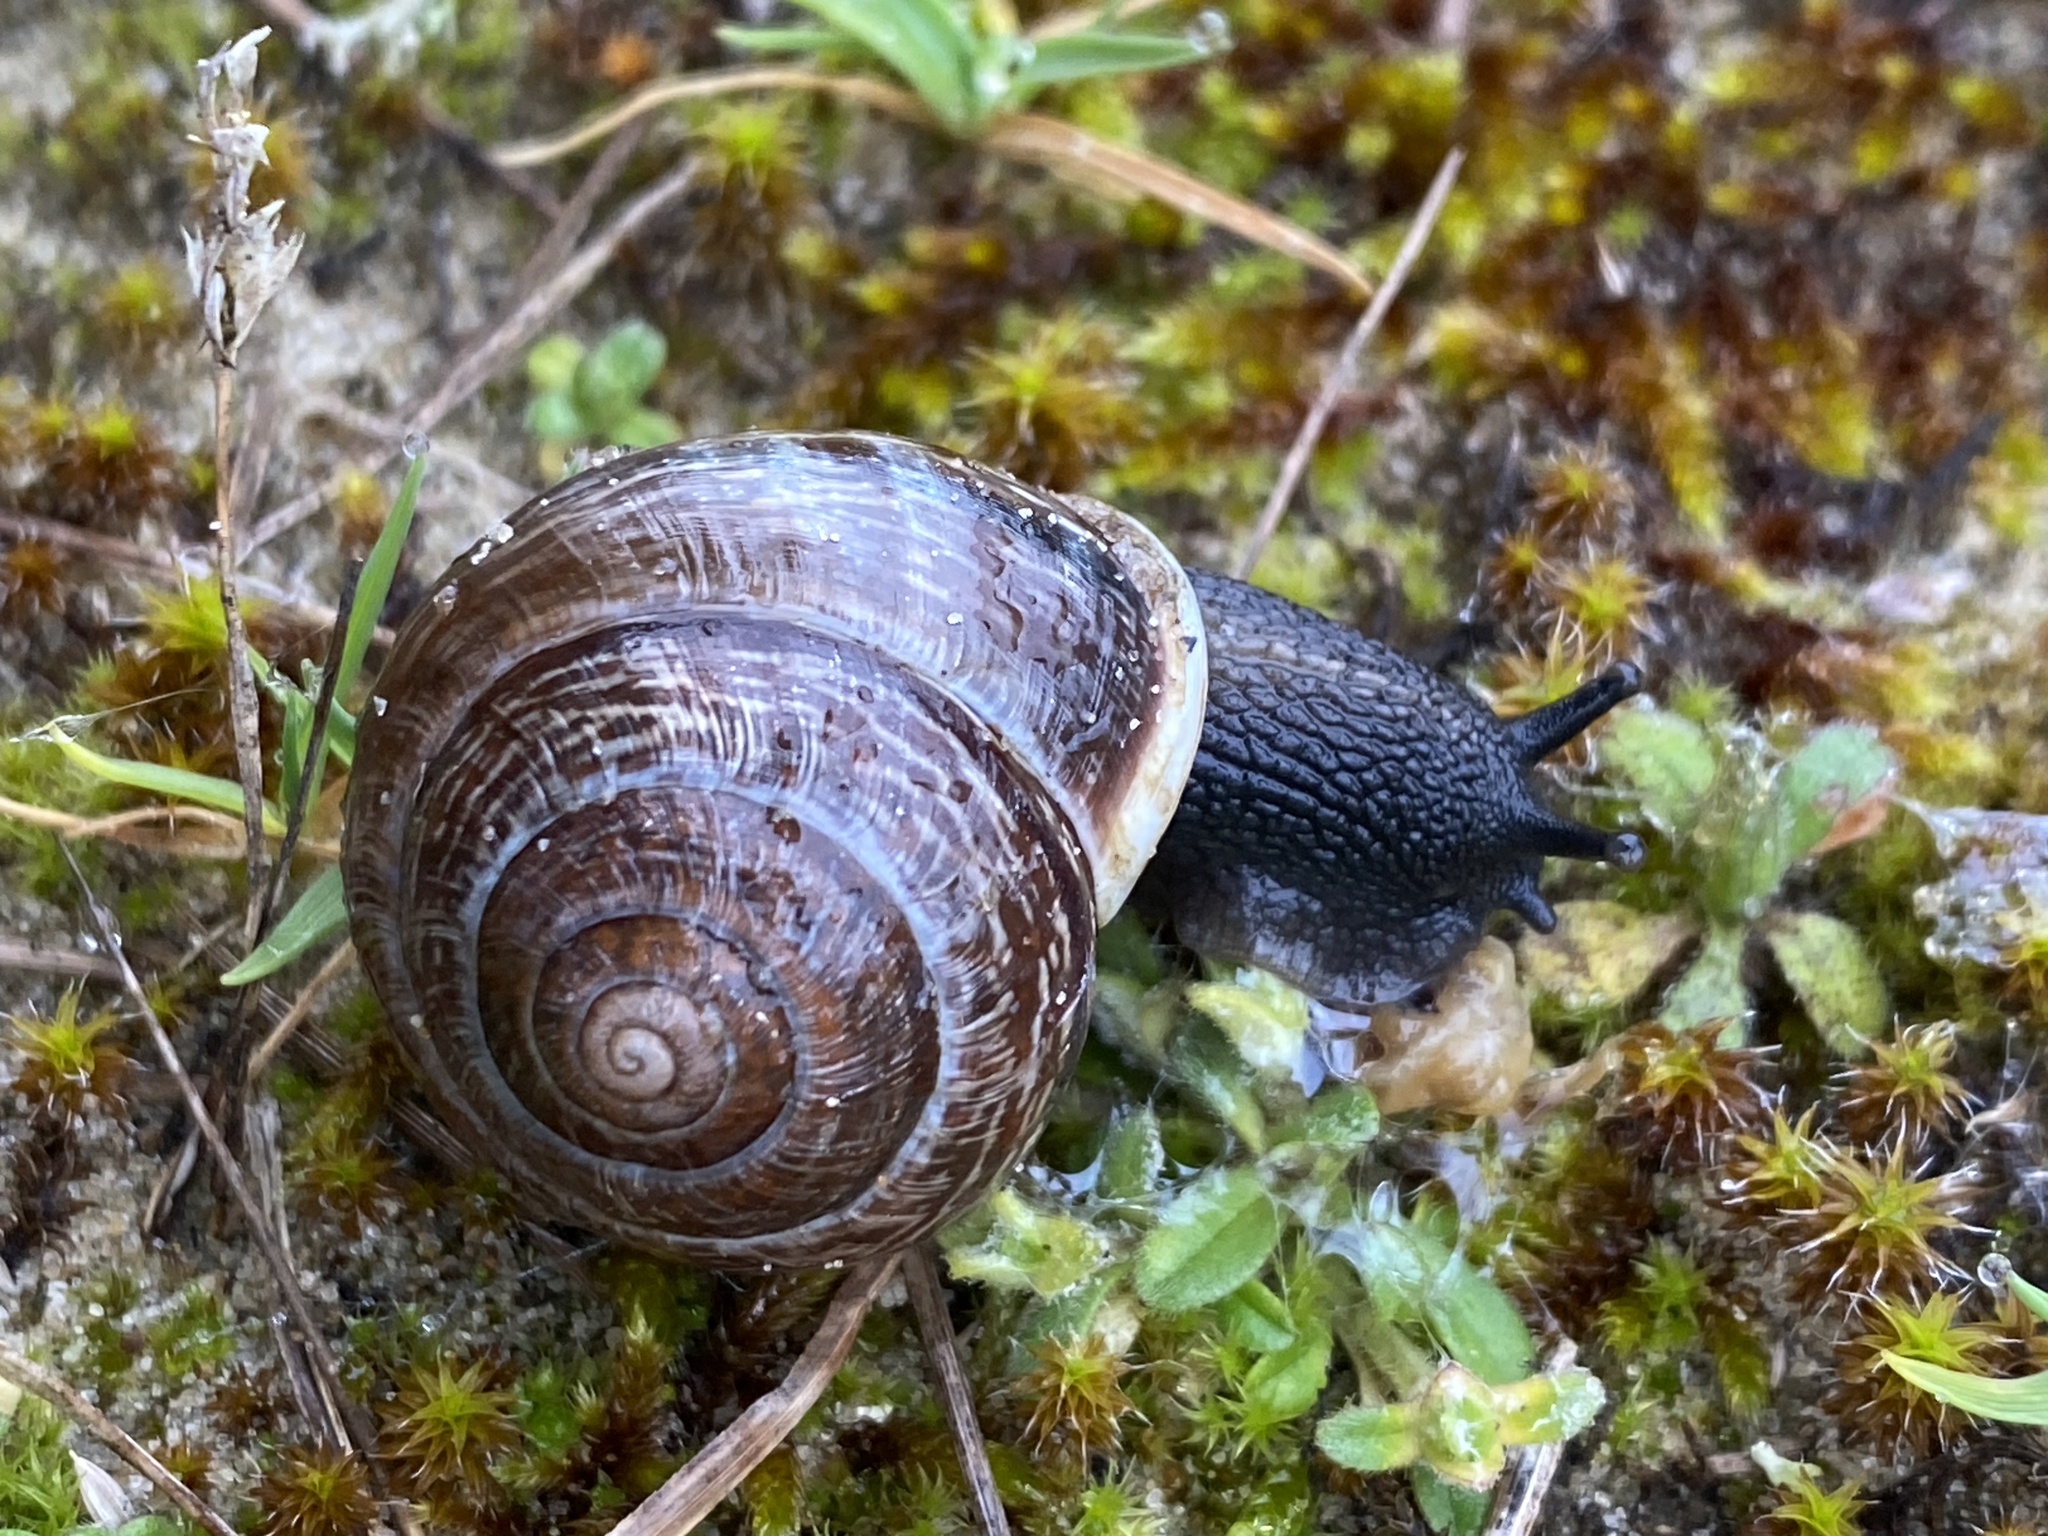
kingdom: Animalia
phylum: Mollusca
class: Gastropoda
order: Stylommatophora
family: Helicidae
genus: Arianta
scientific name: Arianta arbustorum
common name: Copse snail
